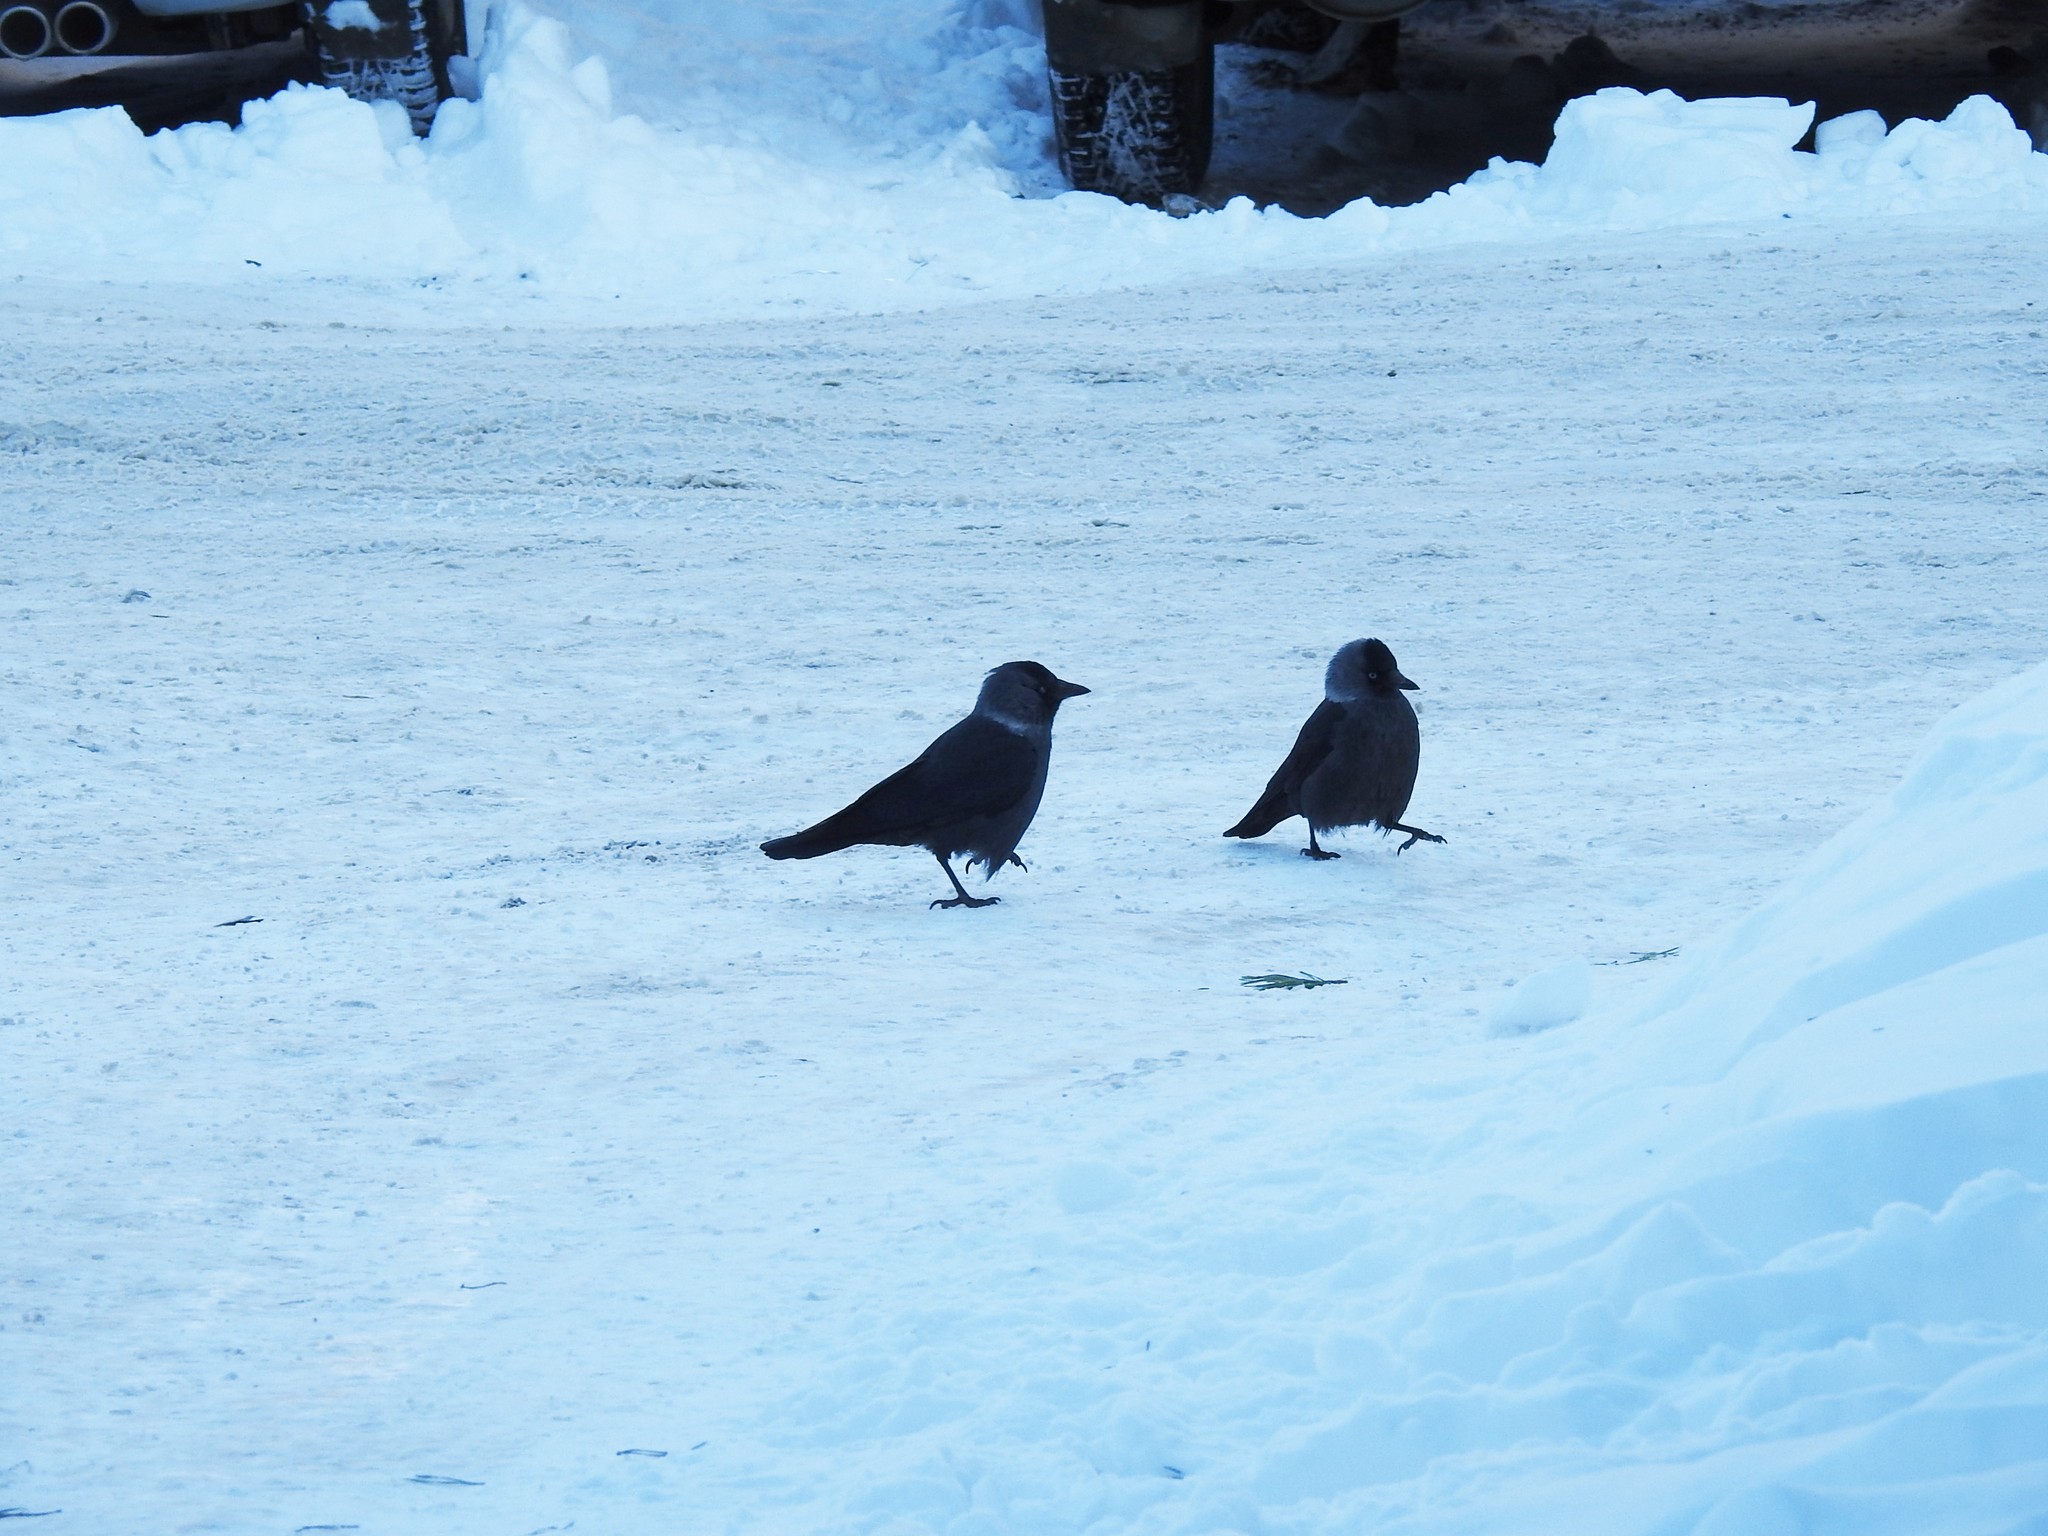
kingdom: Animalia
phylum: Chordata
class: Aves
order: Passeriformes
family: Corvidae
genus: Coloeus
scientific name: Coloeus monedula
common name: Western jackdaw
